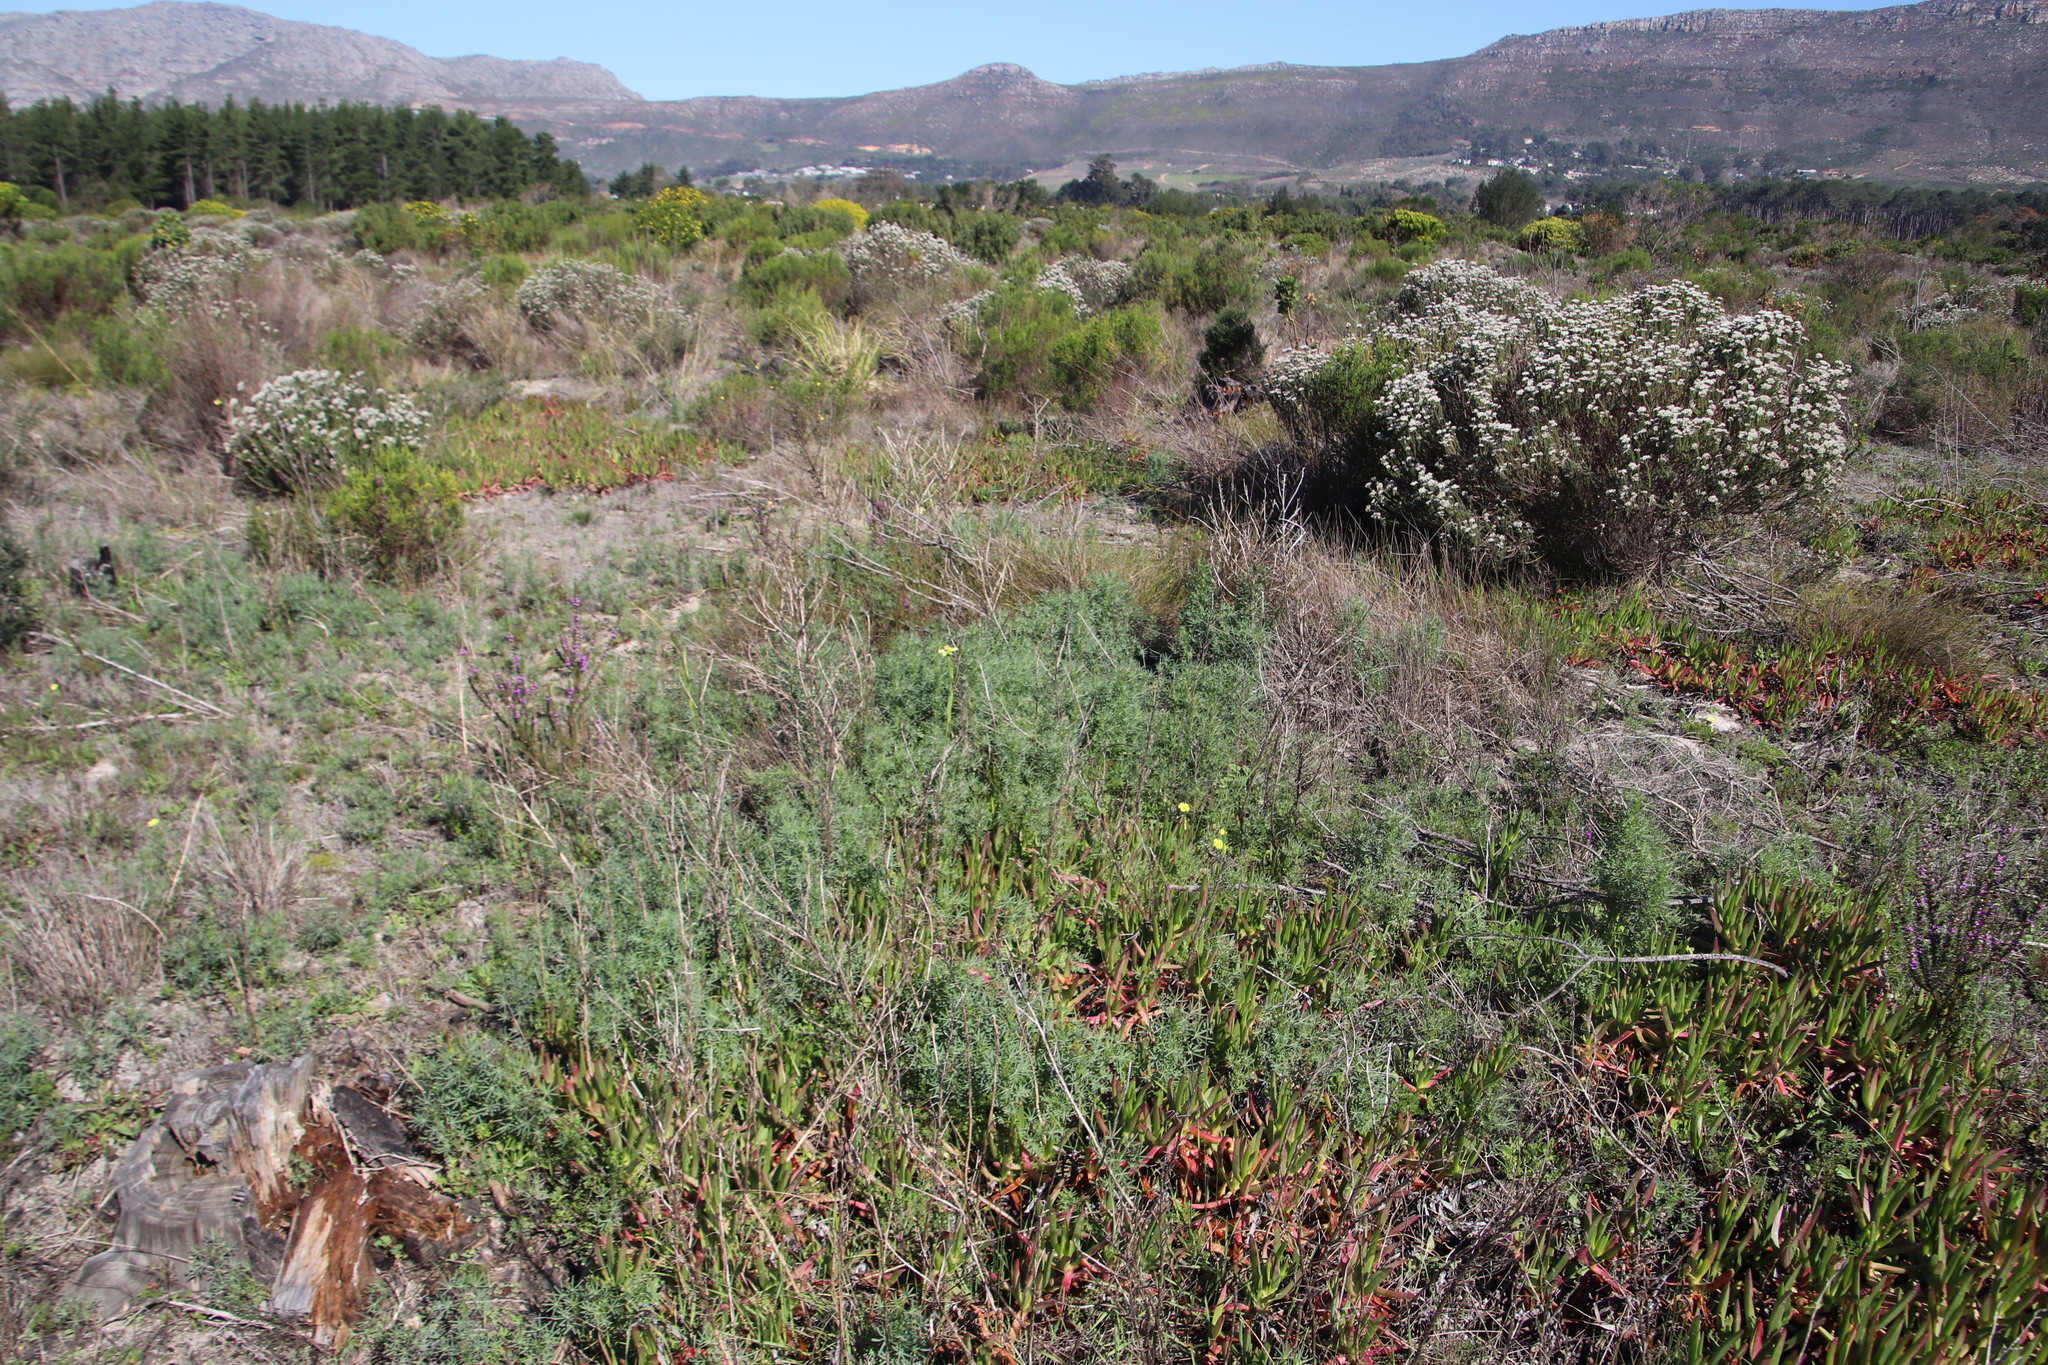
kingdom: Plantae
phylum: Tracheophyta
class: Magnoliopsida
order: Fabales
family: Fabaceae
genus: Lupinus
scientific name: Lupinus angustifolius
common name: Narrow-leaved lupin
